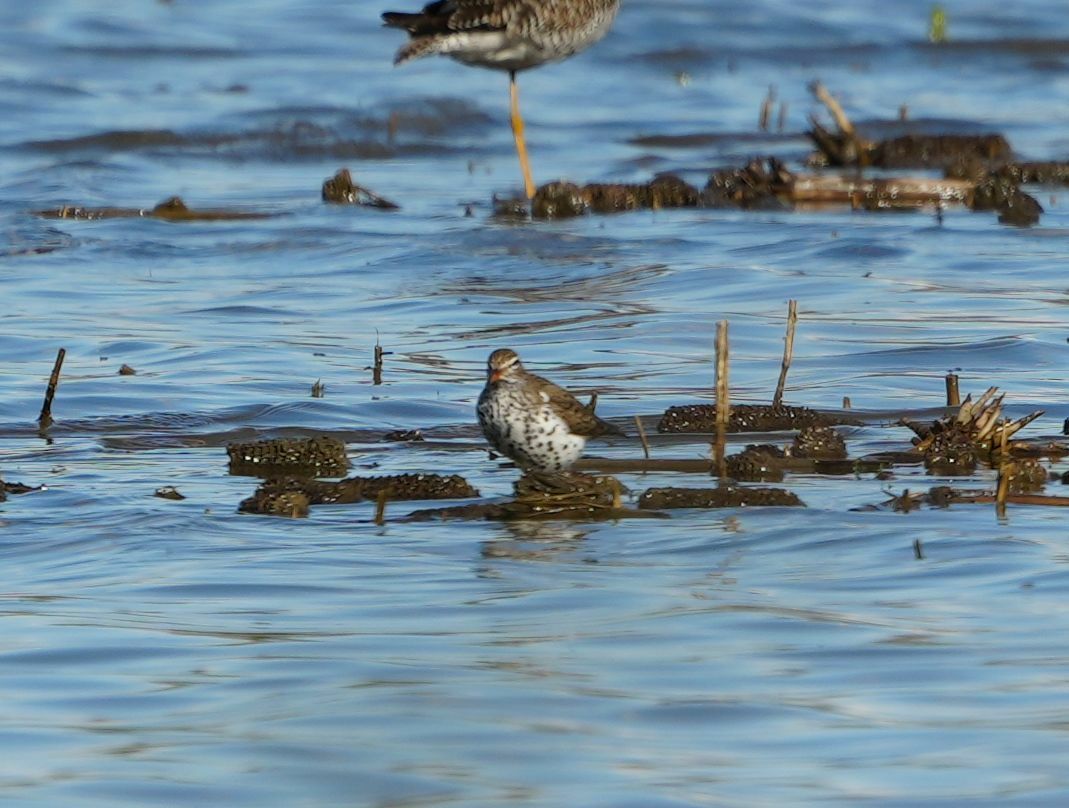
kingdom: Animalia
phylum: Chordata
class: Aves
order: Charadriiformes
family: Scolopacidae
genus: Actitis
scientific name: Actitis macularius
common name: Spotted sandpiper
